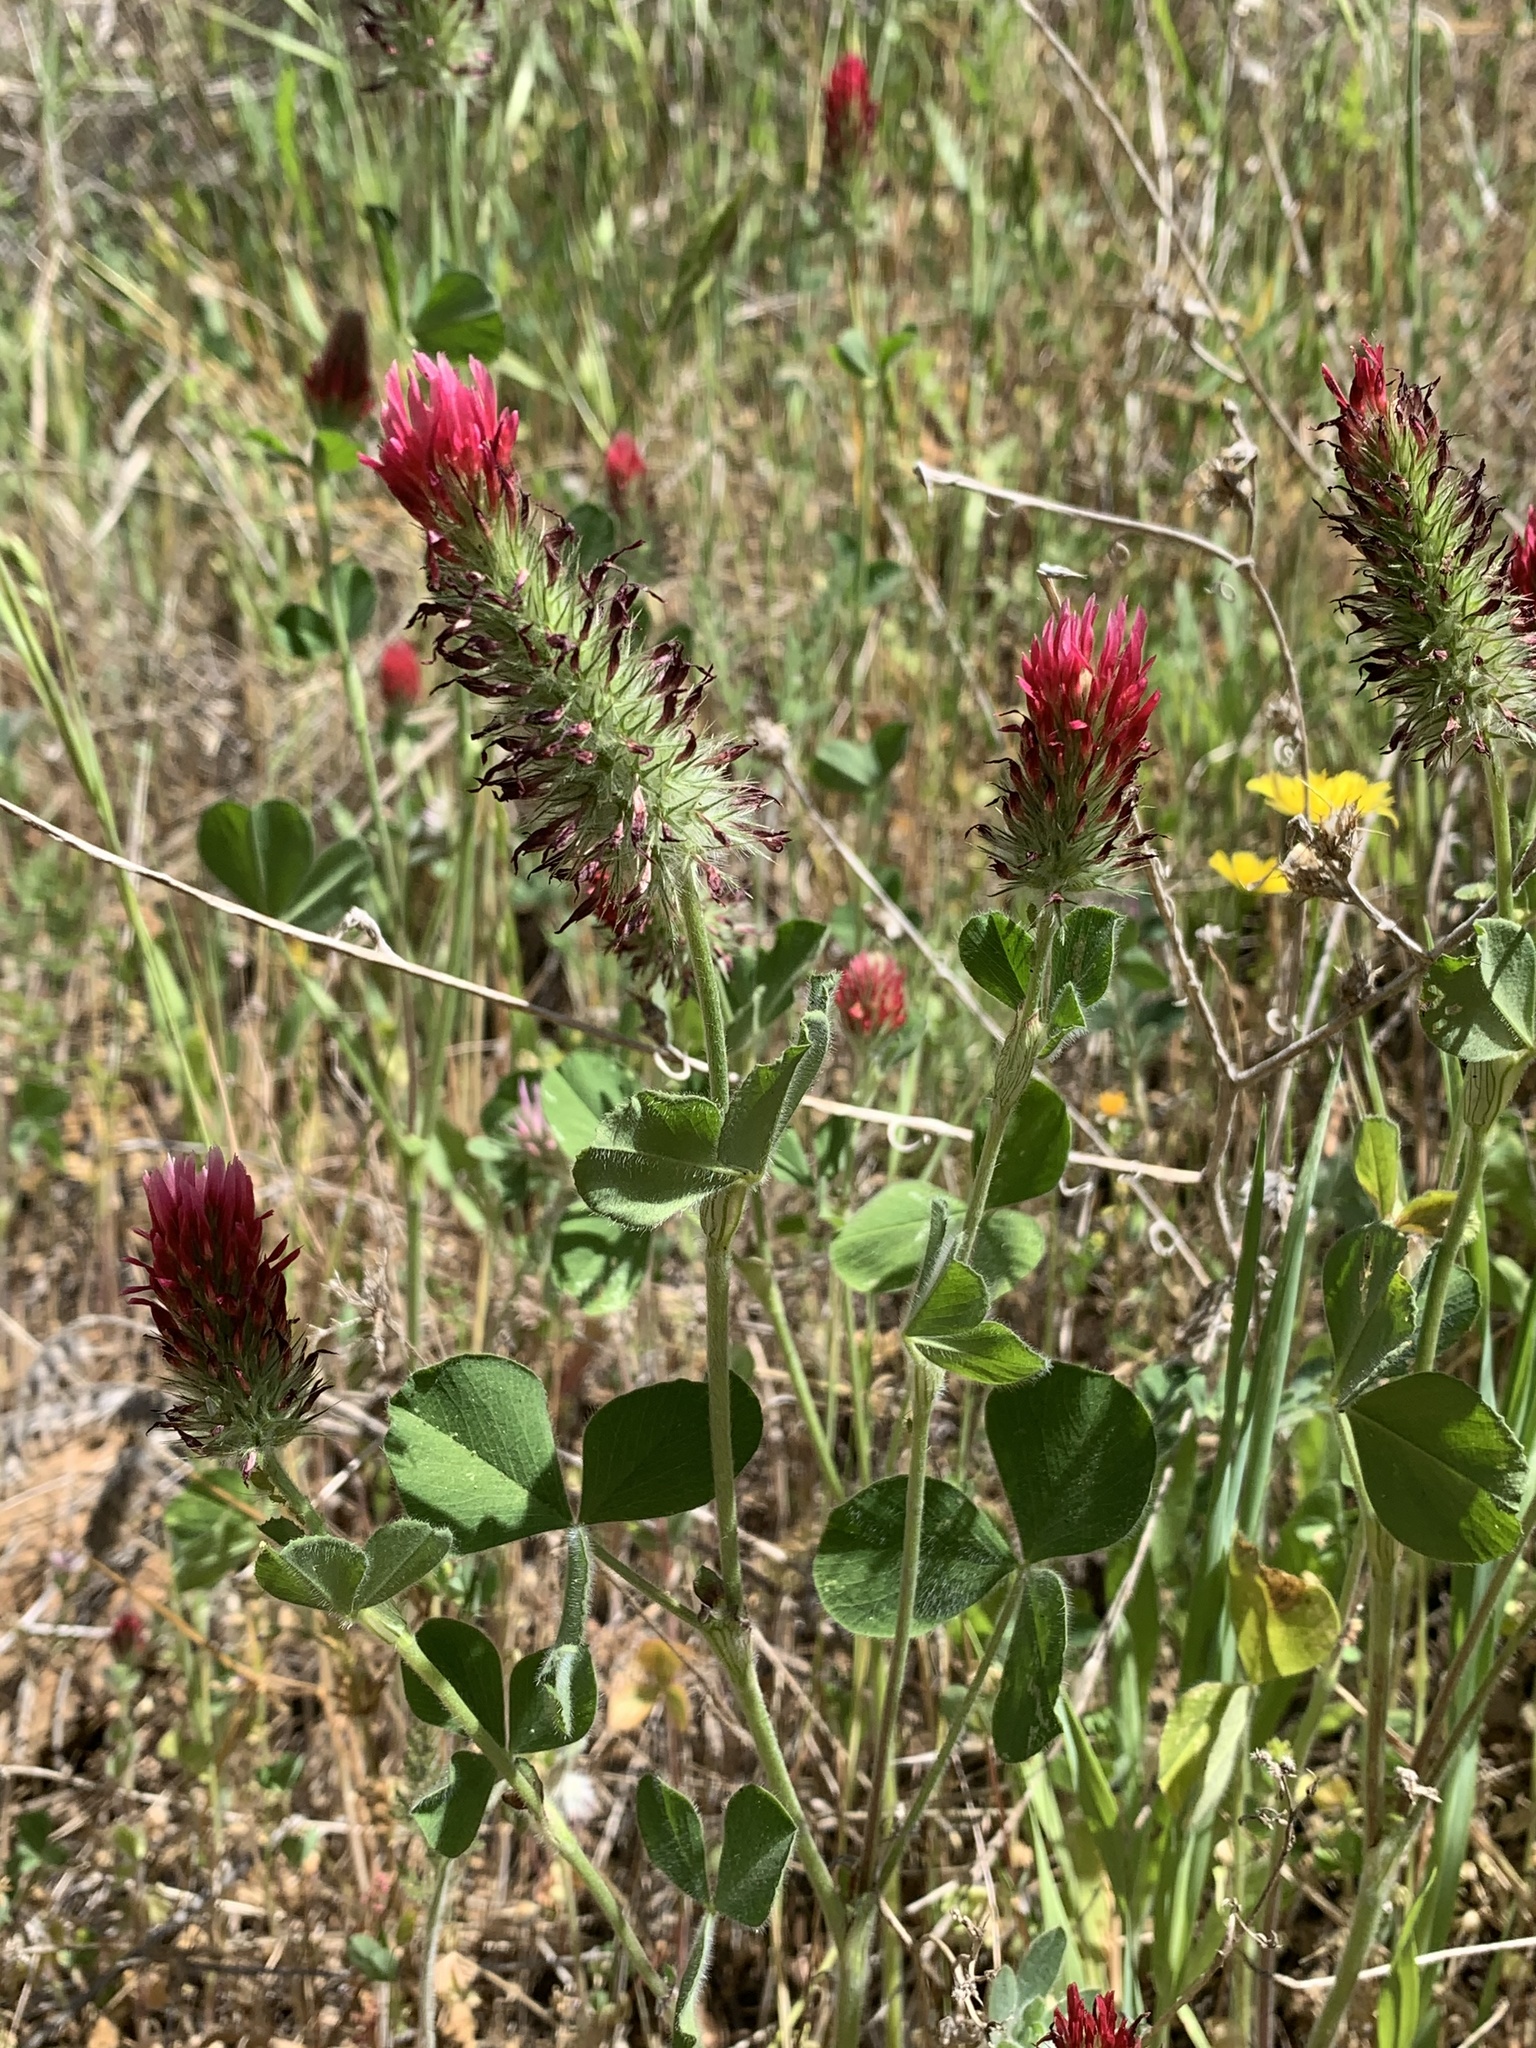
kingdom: Plantae
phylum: Tracheophyta
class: Magnoliopsida
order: Fabales
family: Fabaceae
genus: Trifolium
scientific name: Trifolium incarnatum
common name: Crimson clover
